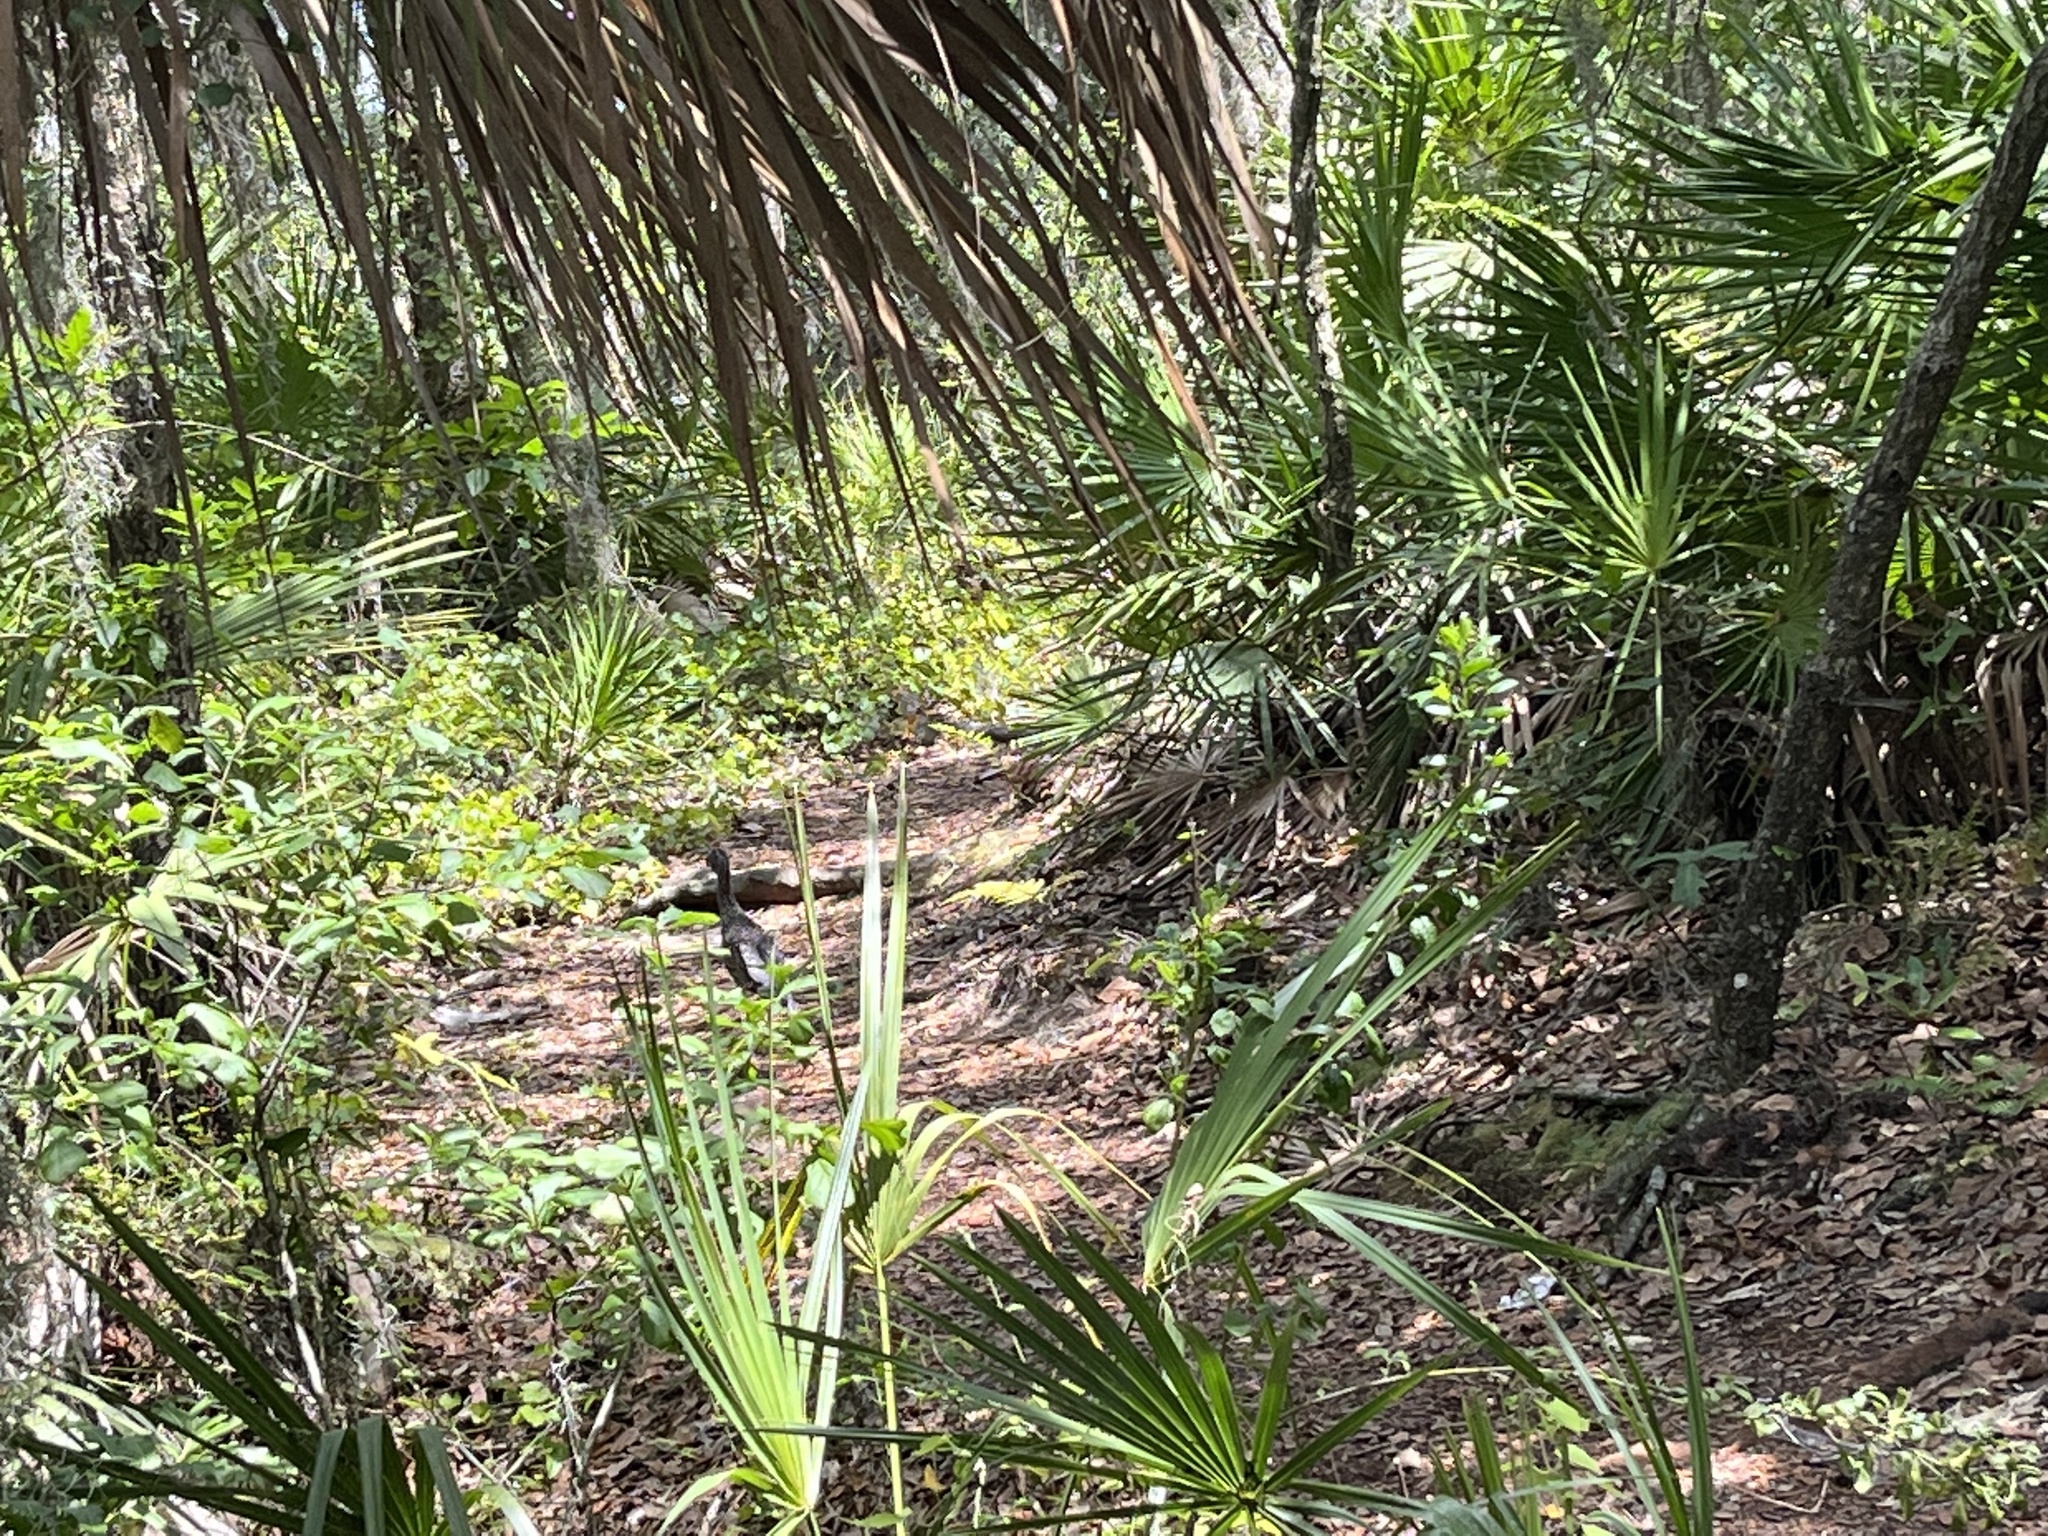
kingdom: Animalia
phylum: Chordata
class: Aves
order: Pelecaniformes
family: Ardeidae
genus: Nyctanassa
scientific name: Nyctanassa violacea
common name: Yellow-crowned night heron
